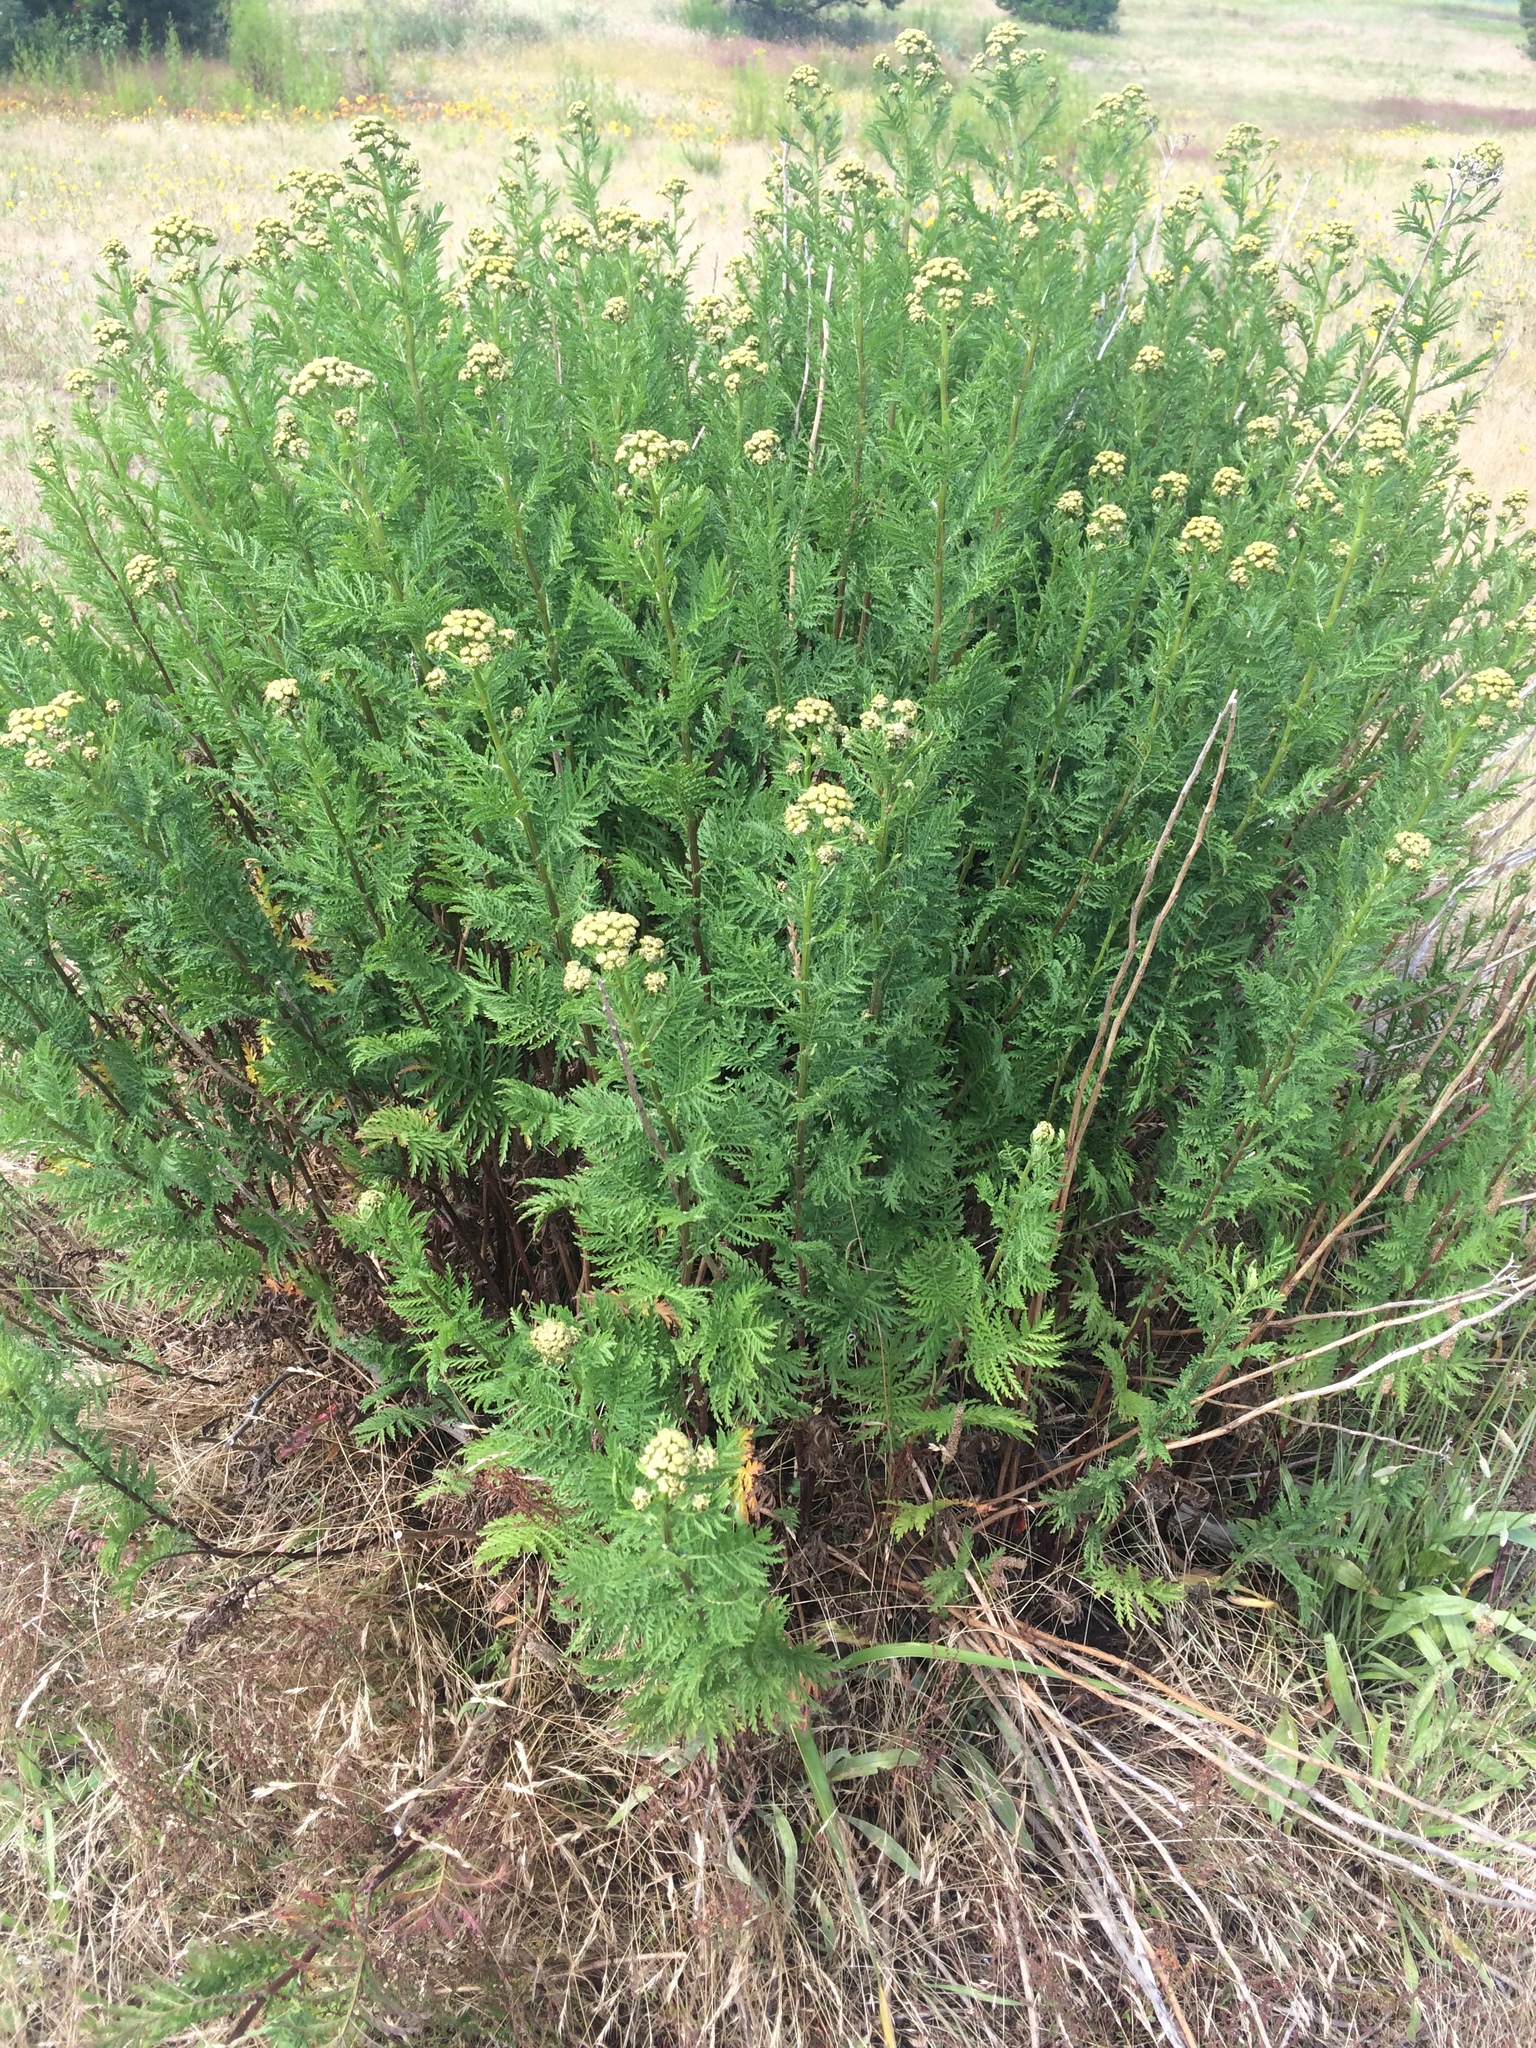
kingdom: Plantae
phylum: Tracheophyta
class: Magnoliopsida
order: Asterales
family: Asteraceae
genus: Tanacetum
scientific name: Tanacetum vulgare
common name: Common tansy
